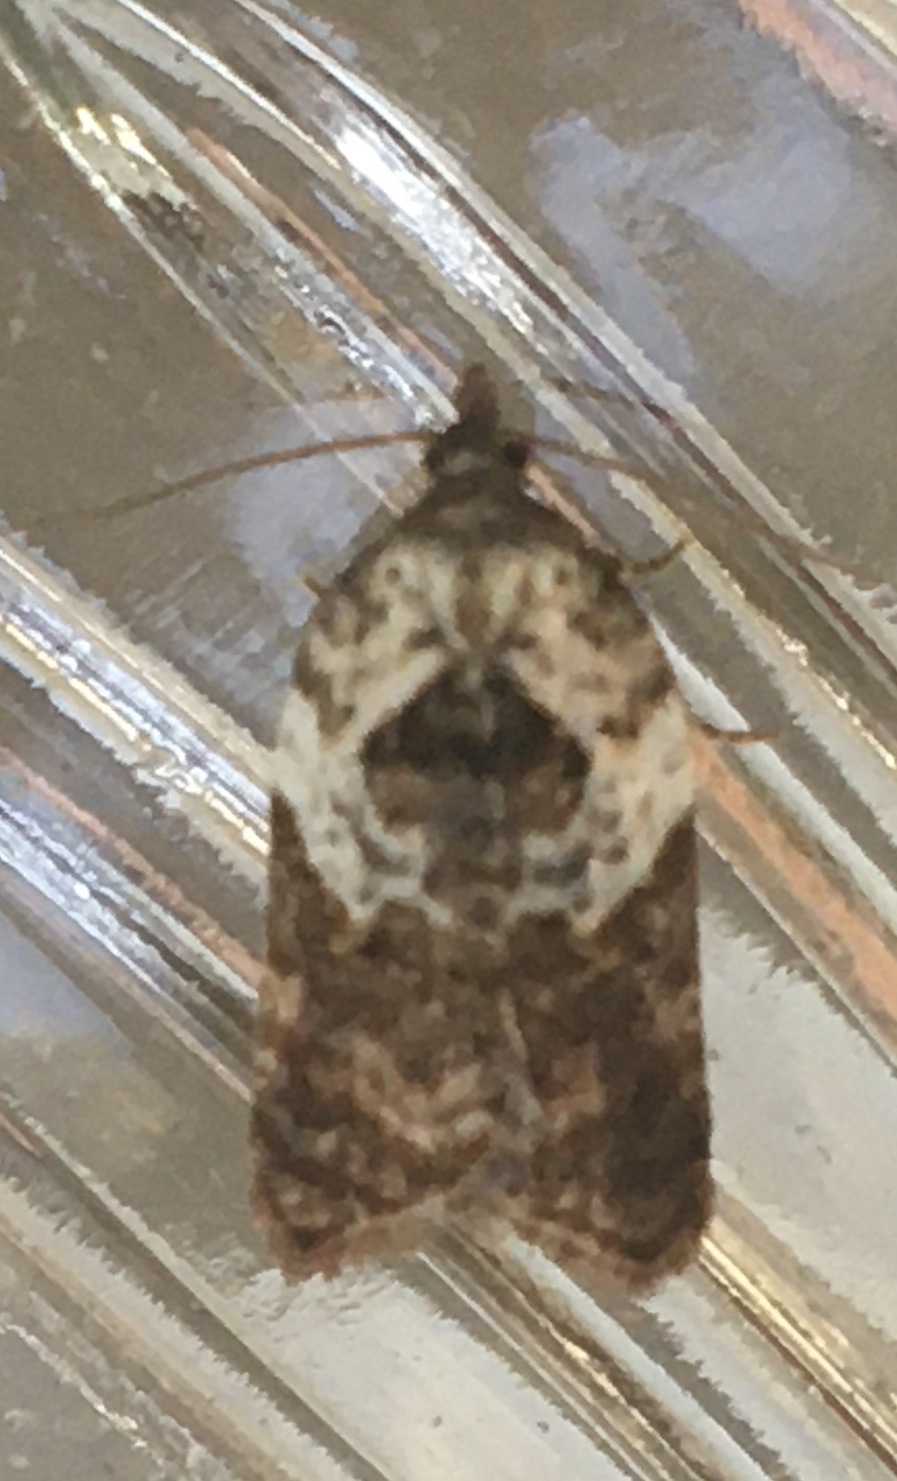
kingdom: Animalia
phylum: Arthropoda
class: Insecta
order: Lepidoptera
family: Tortricidae
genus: Acleris
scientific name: Acleris variegana
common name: Garden rose tortrix
